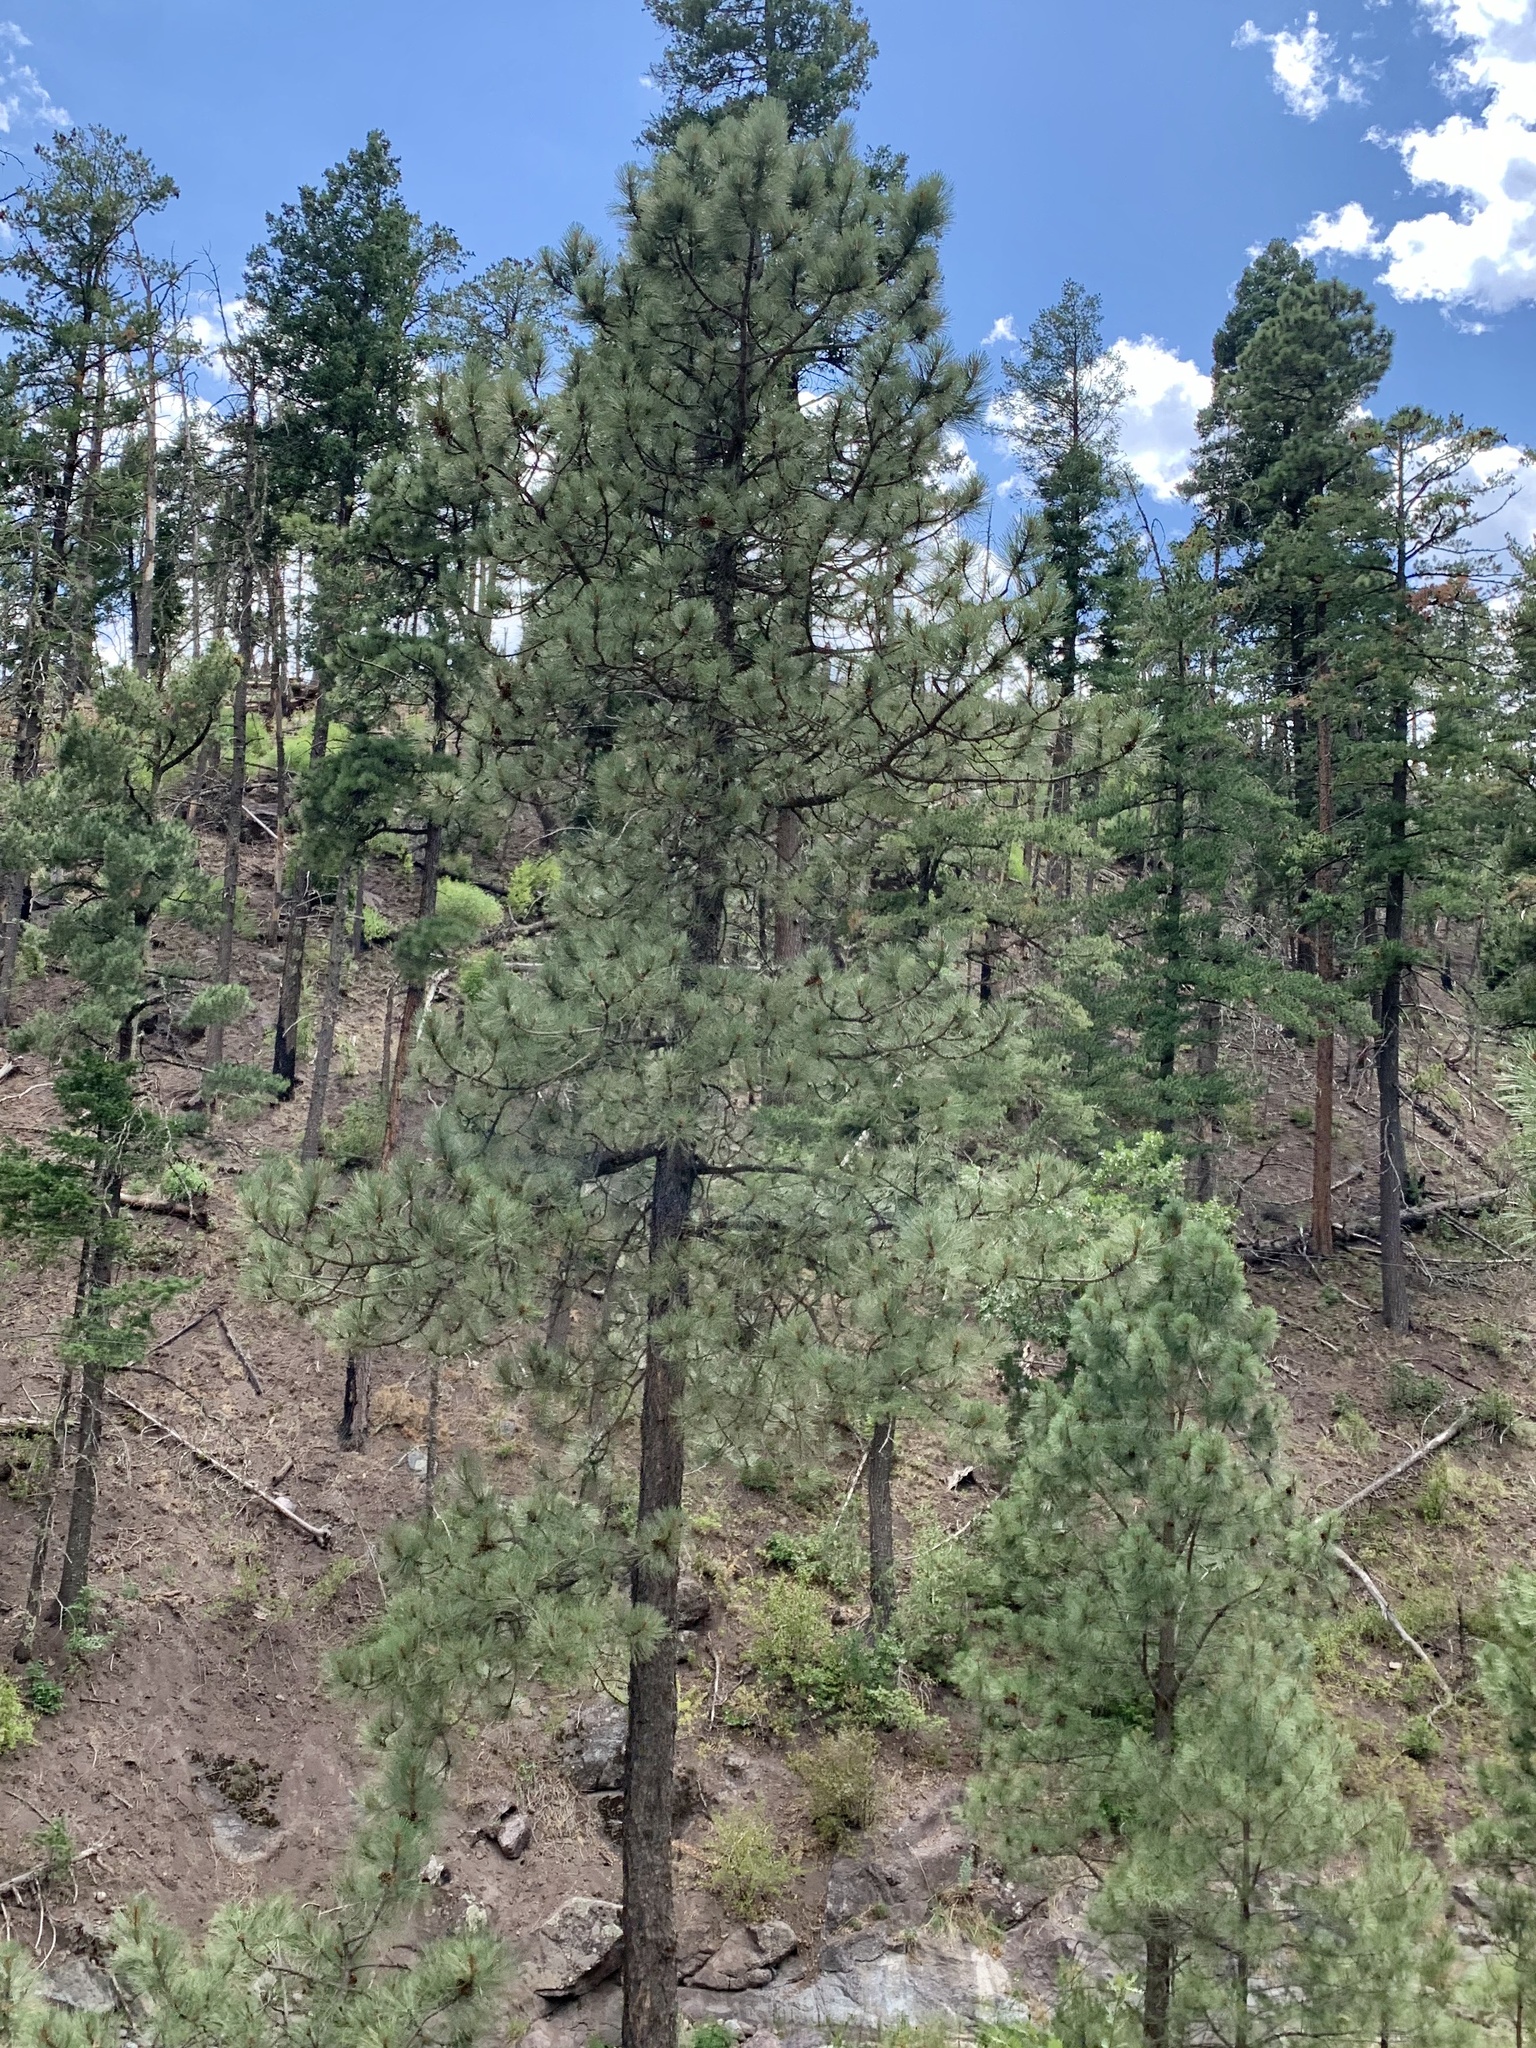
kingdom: Plantae
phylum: Tracheophyta
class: Pinopsida
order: Pinales
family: Pinaceae
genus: Pinus
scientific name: Pinus ponderosa
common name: Western yellow-pine
